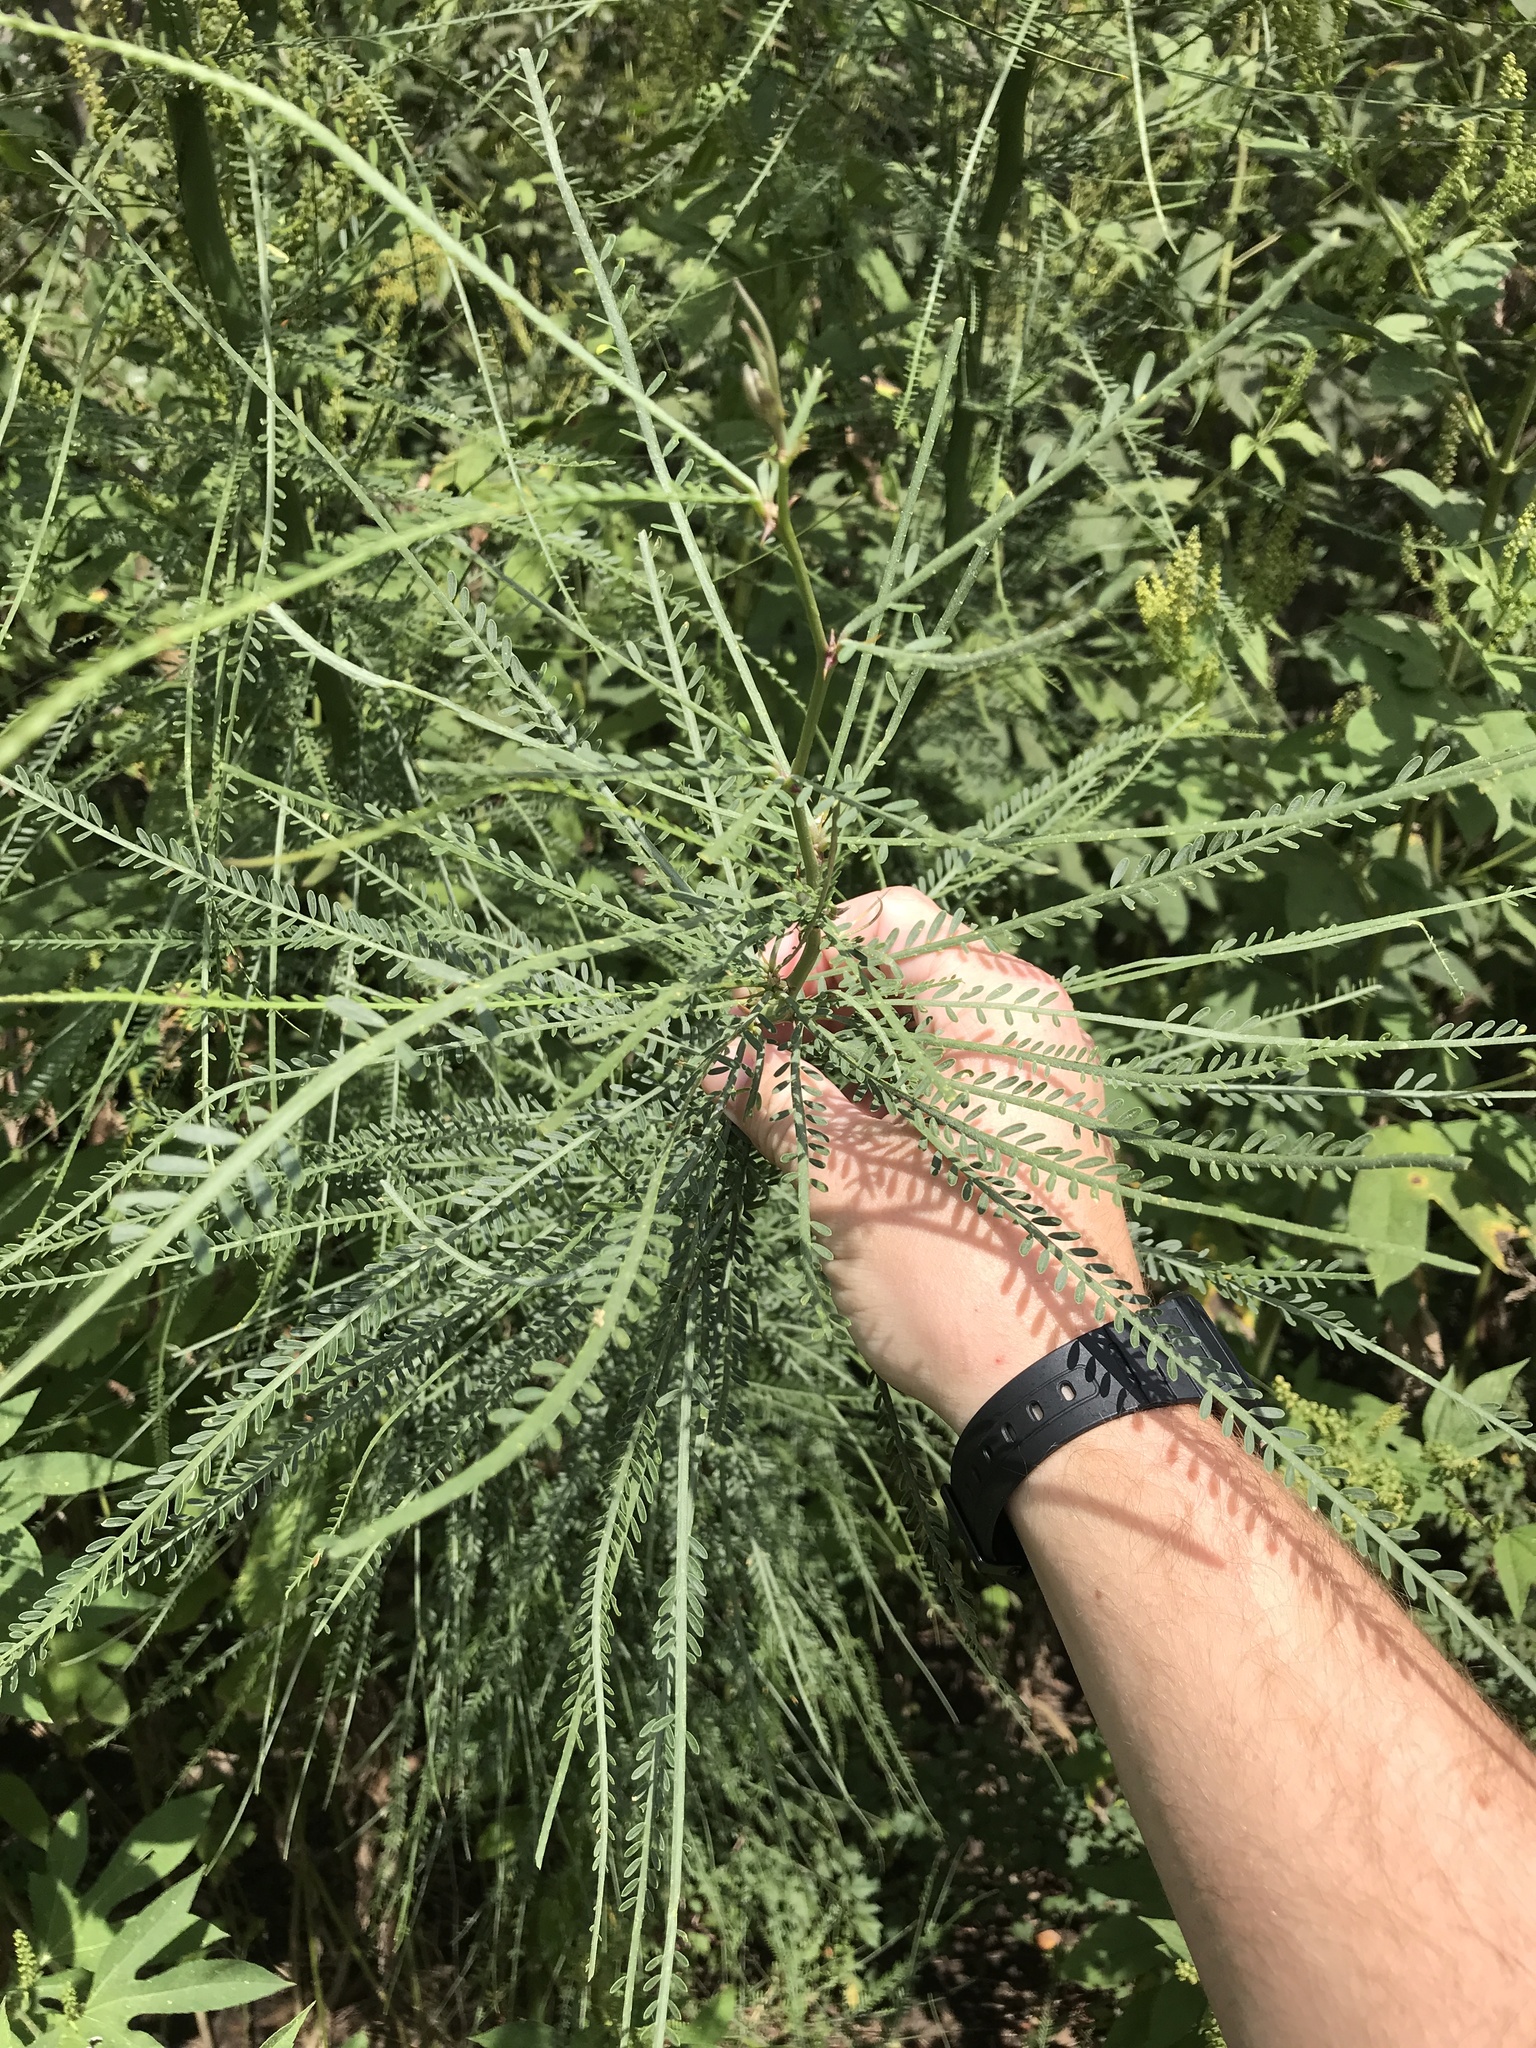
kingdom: Plantae
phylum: Tracheophyta
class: Magnoliopsida
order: Fabales
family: Fabaceae
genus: Parkinsonia
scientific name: Parkinsonia aculeata
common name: Jerusalem thorn
